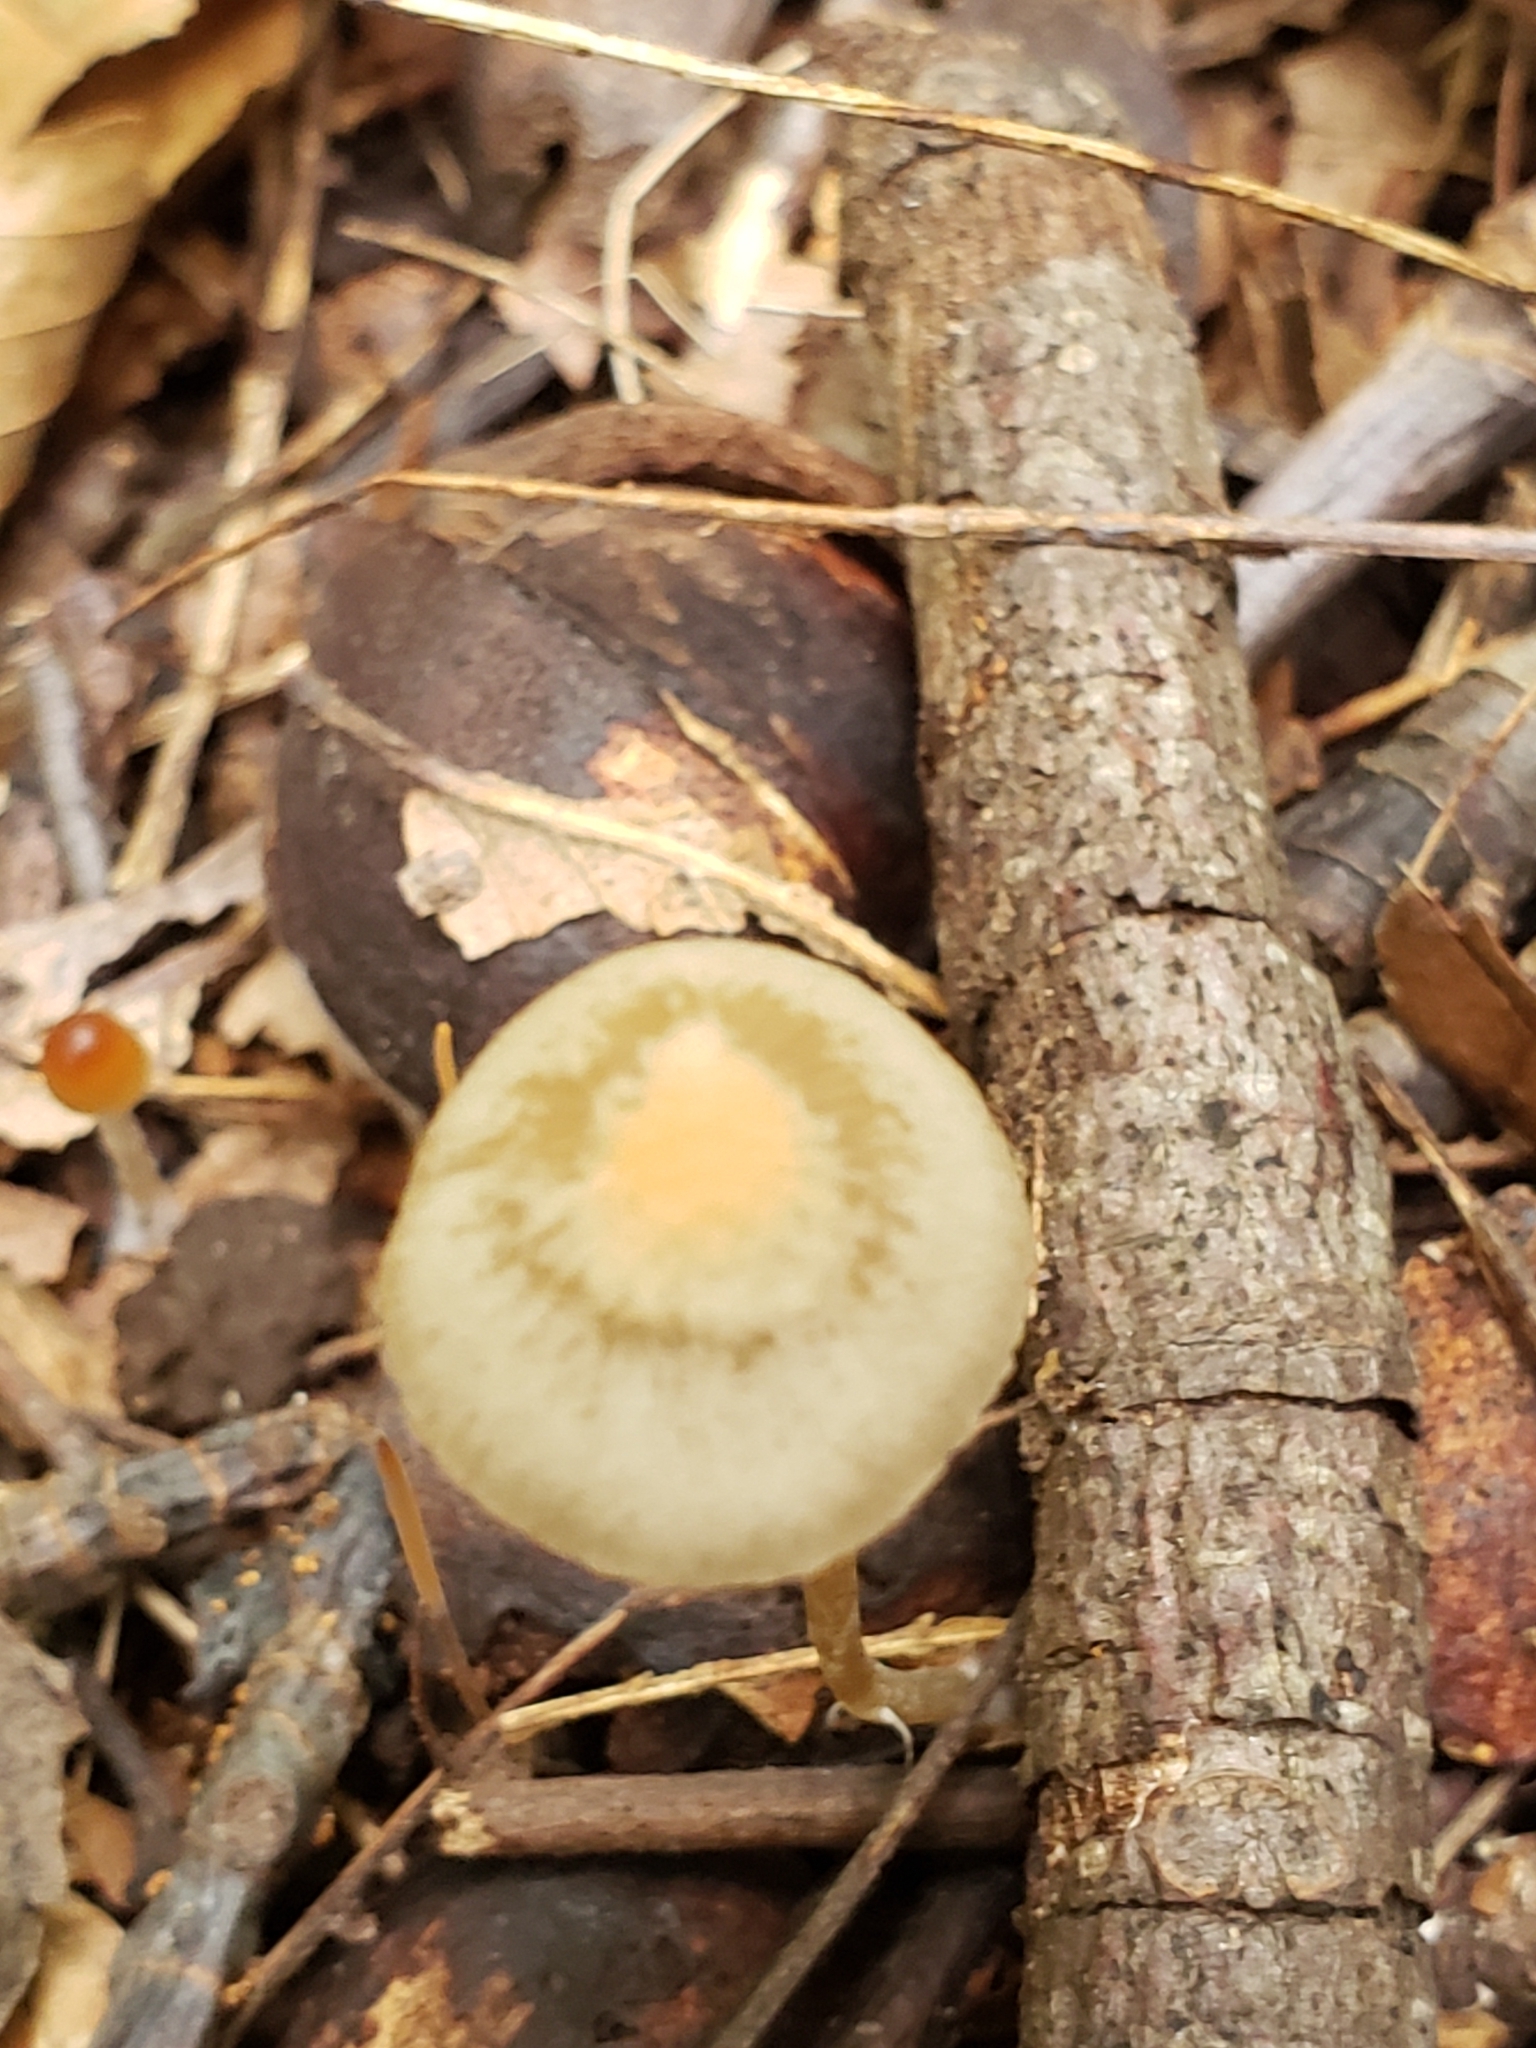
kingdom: Fungi
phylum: Basidiomycota
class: Agaricomycetes
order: Agaricales
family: Psathyrellaceae
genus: Psathyrella
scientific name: Psathyrella corrugis
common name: Red edge brittlestem
